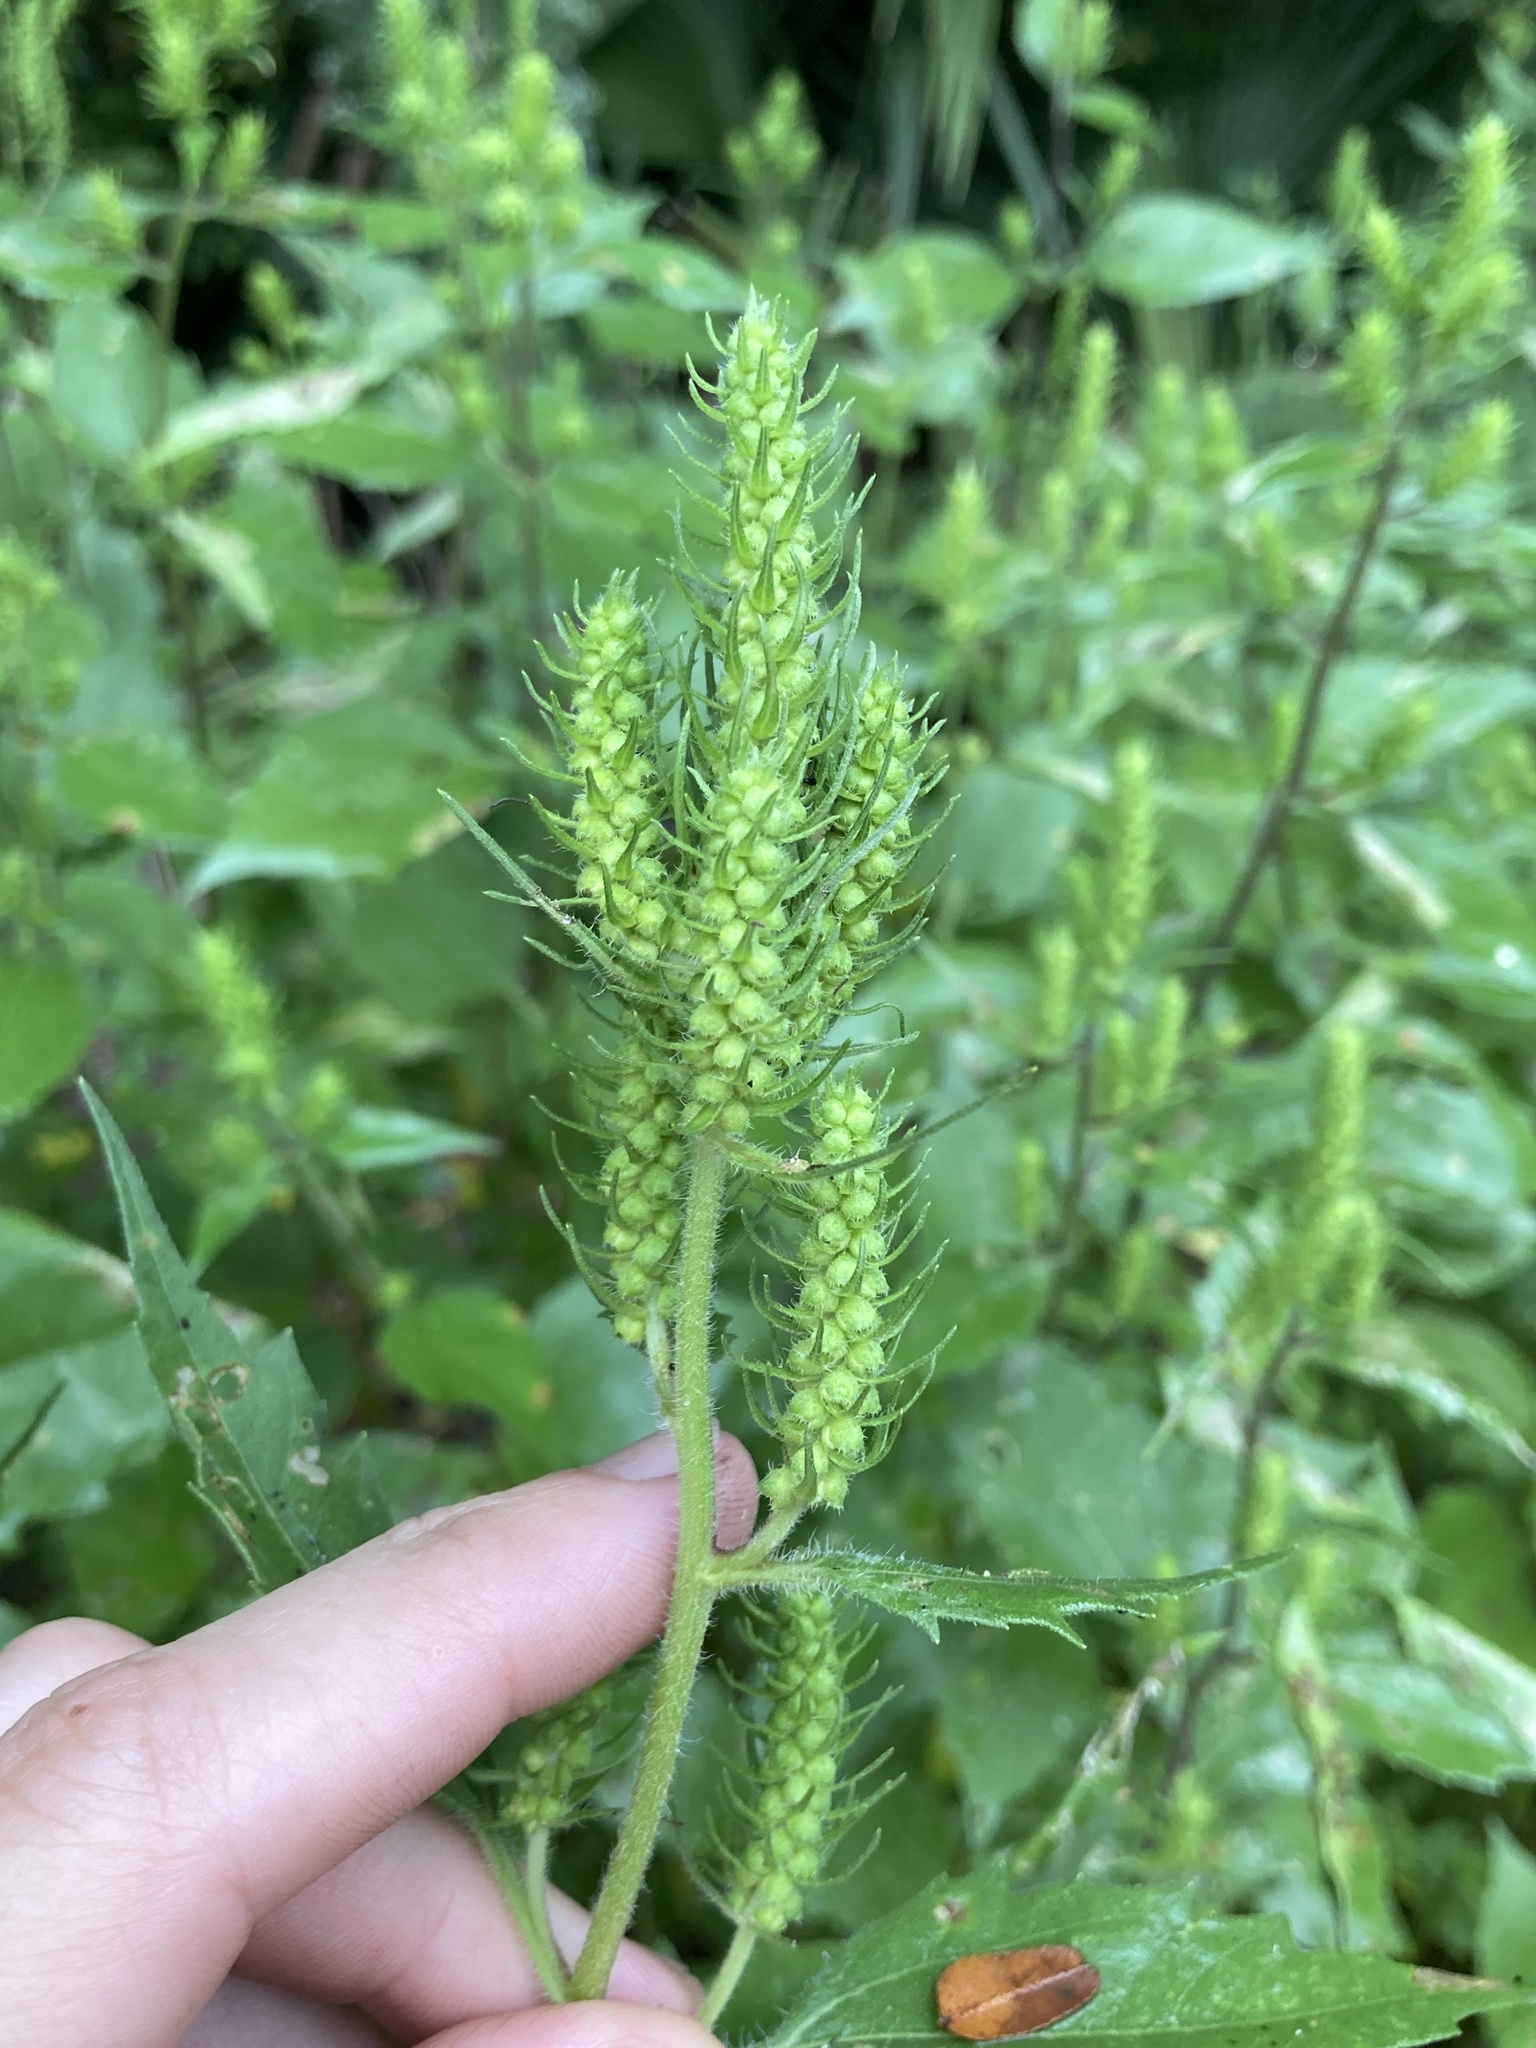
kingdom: Plantae
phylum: Tracheophyta
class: Magnoliopsida
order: Asterales
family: Asteraceae
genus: Iva
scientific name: Iva annua
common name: Marsh-elder
